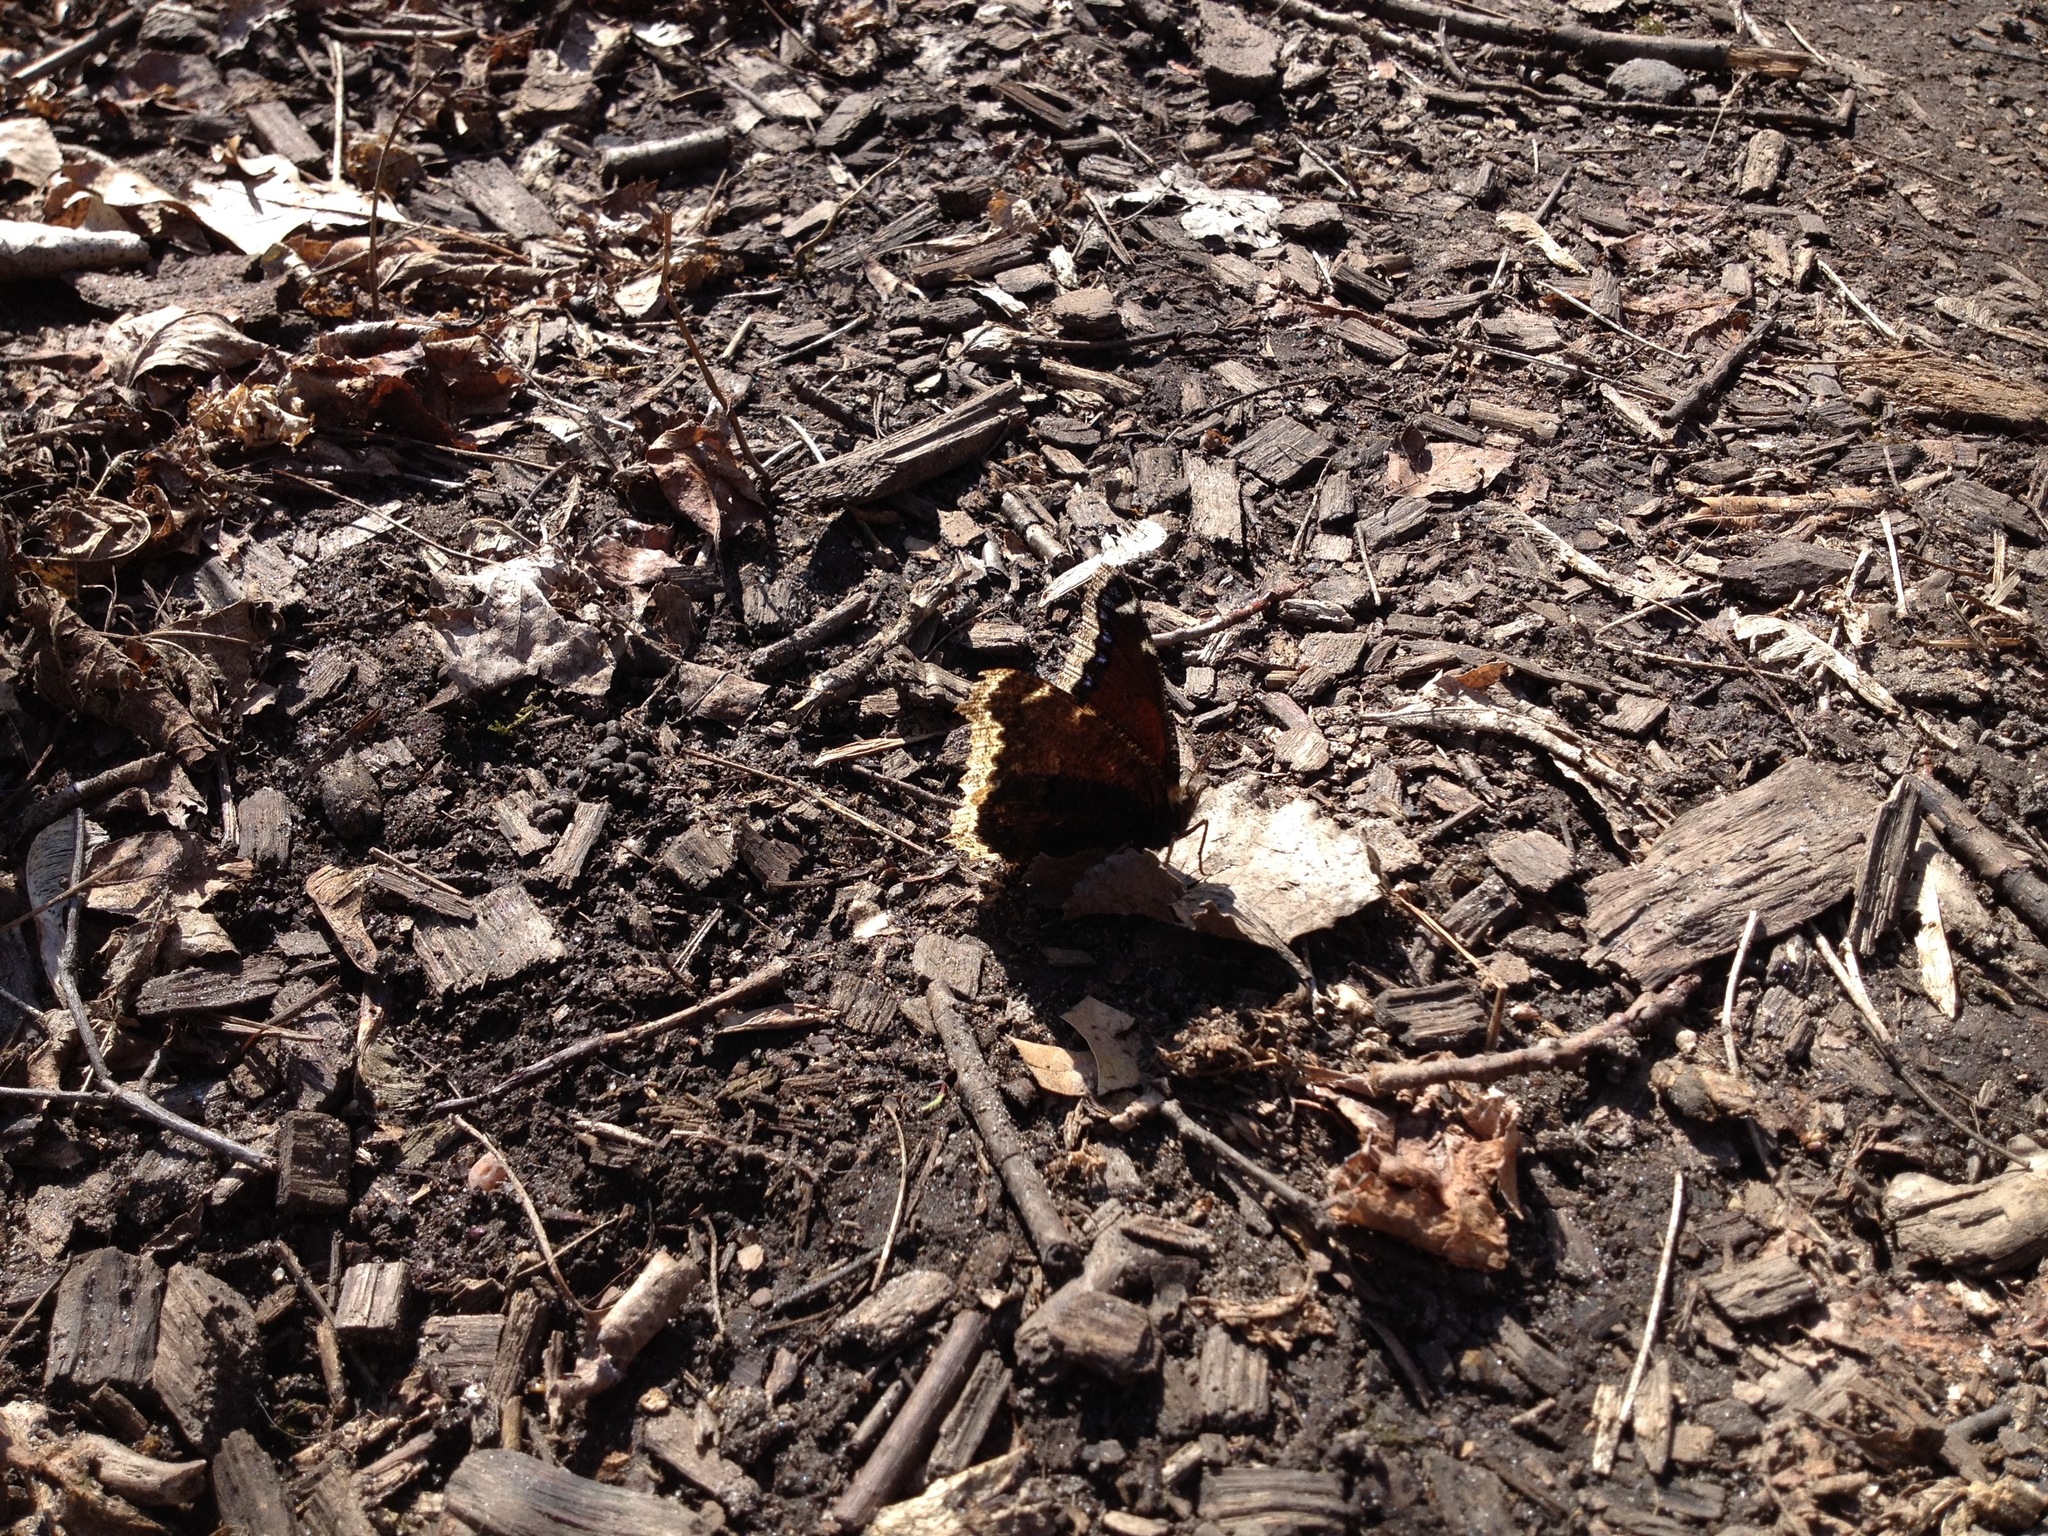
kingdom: Animalia
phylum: Arthropoda
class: Insecta
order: Lepidoptera
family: Nymphalidae
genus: Nymphalis
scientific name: Nymphalis antiopa
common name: Camberwell beauty
